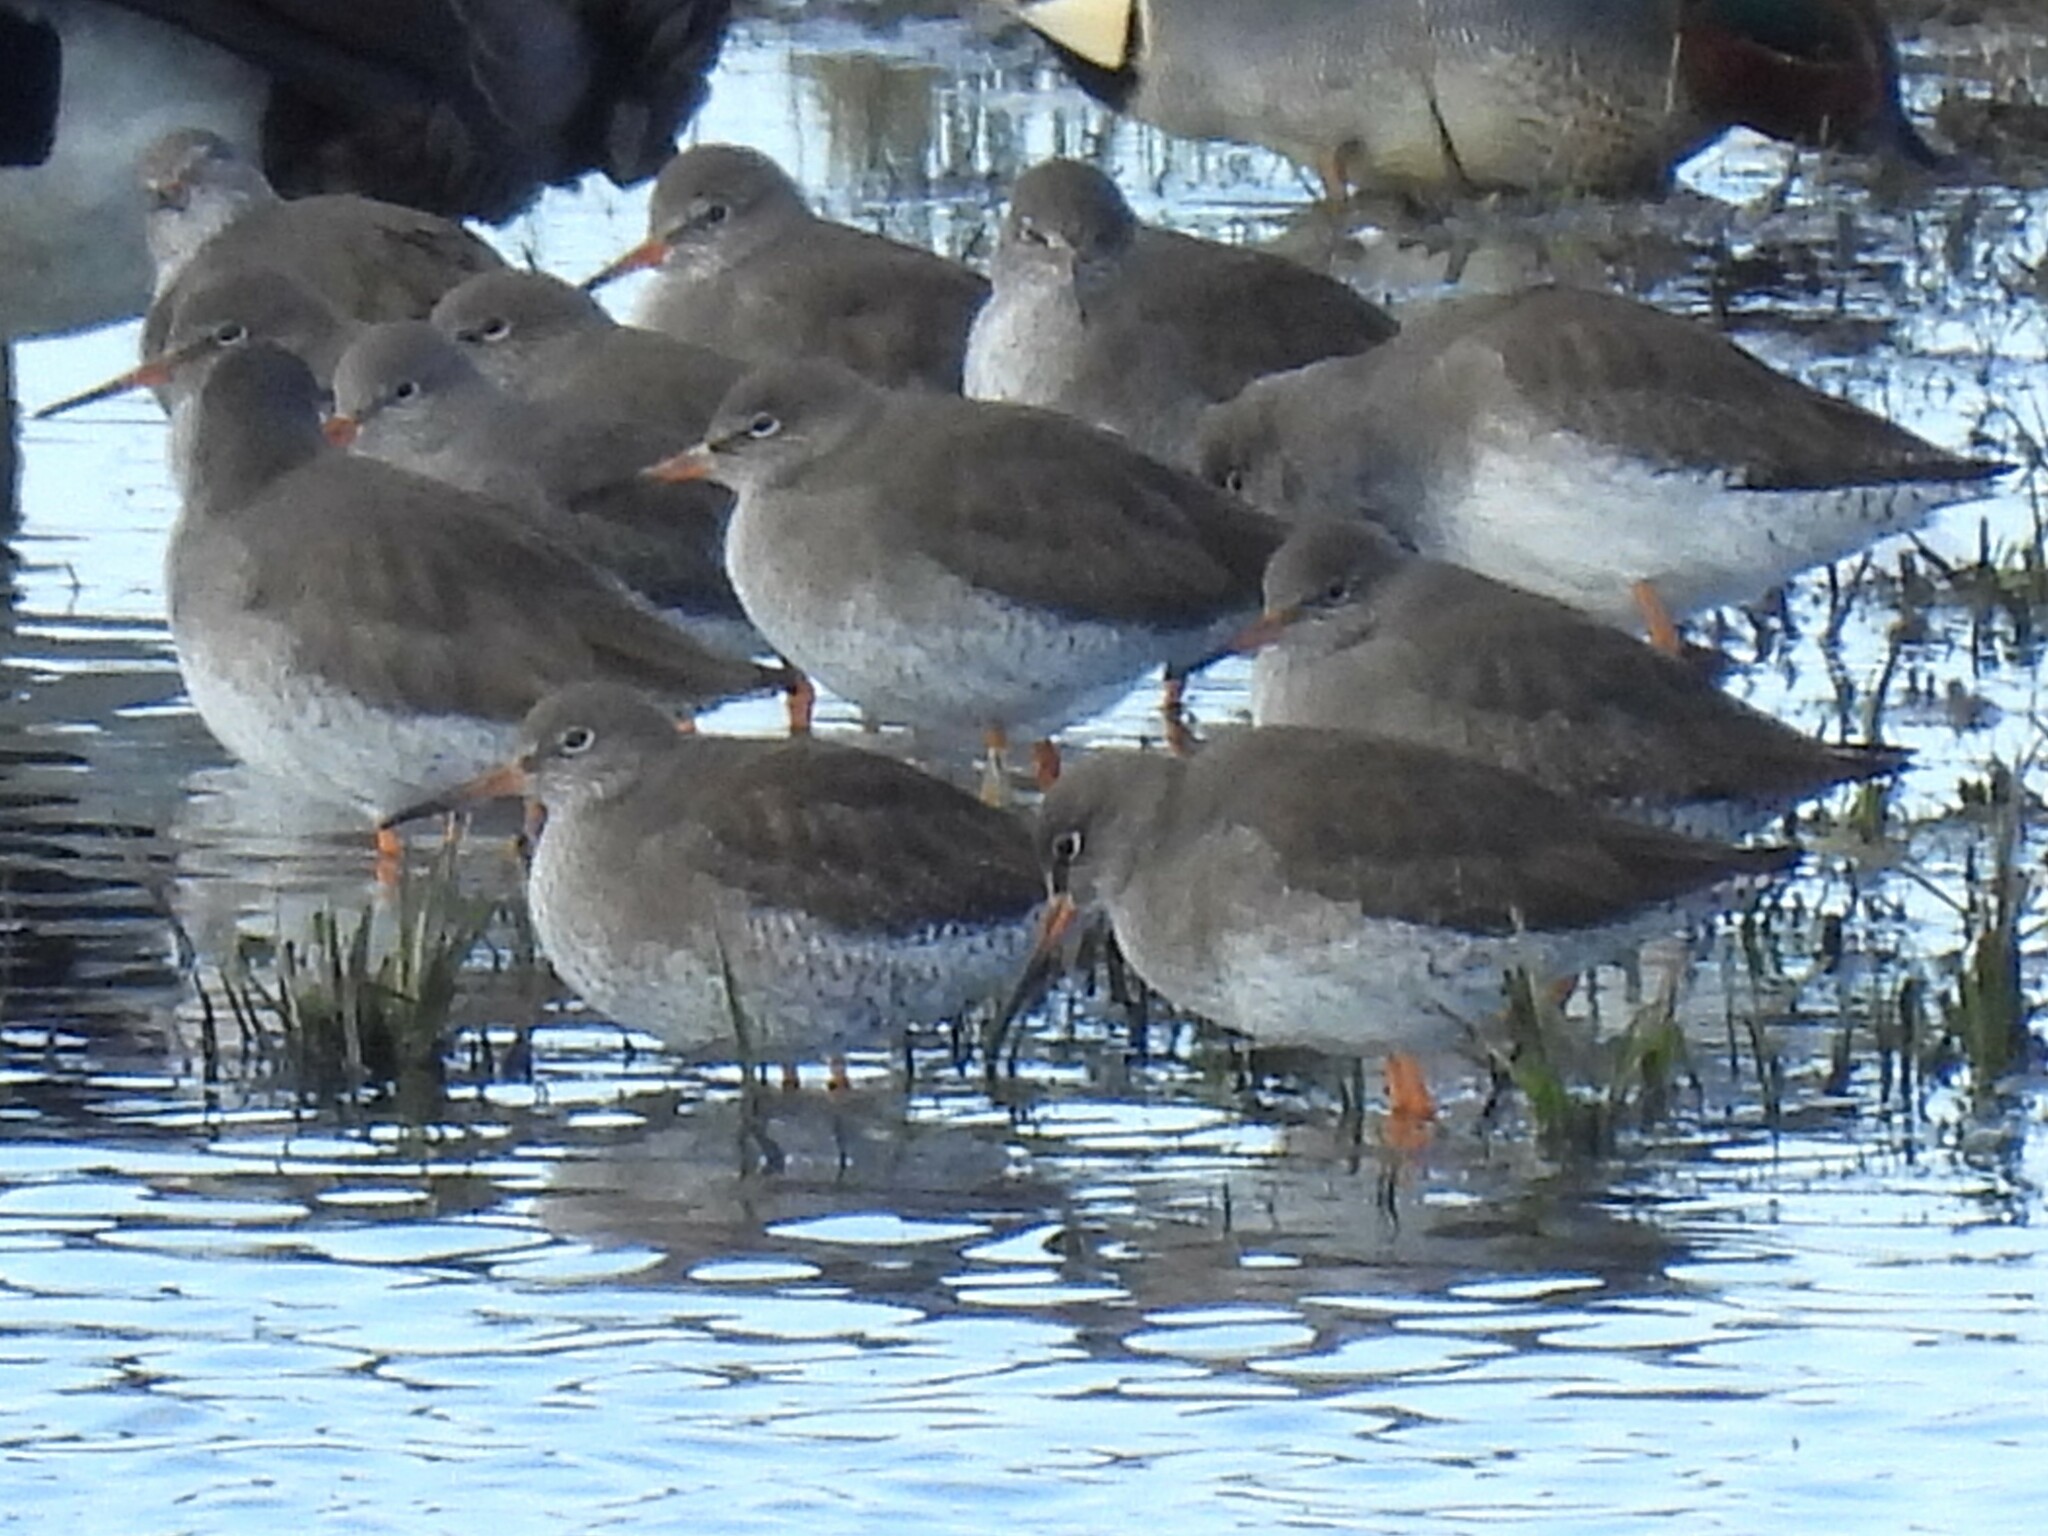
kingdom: Animalia
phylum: Chordata
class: Aves
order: Charadriiformes
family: Scolopacidae
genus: Tringa
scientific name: Tringa totanus
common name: Common redshank
